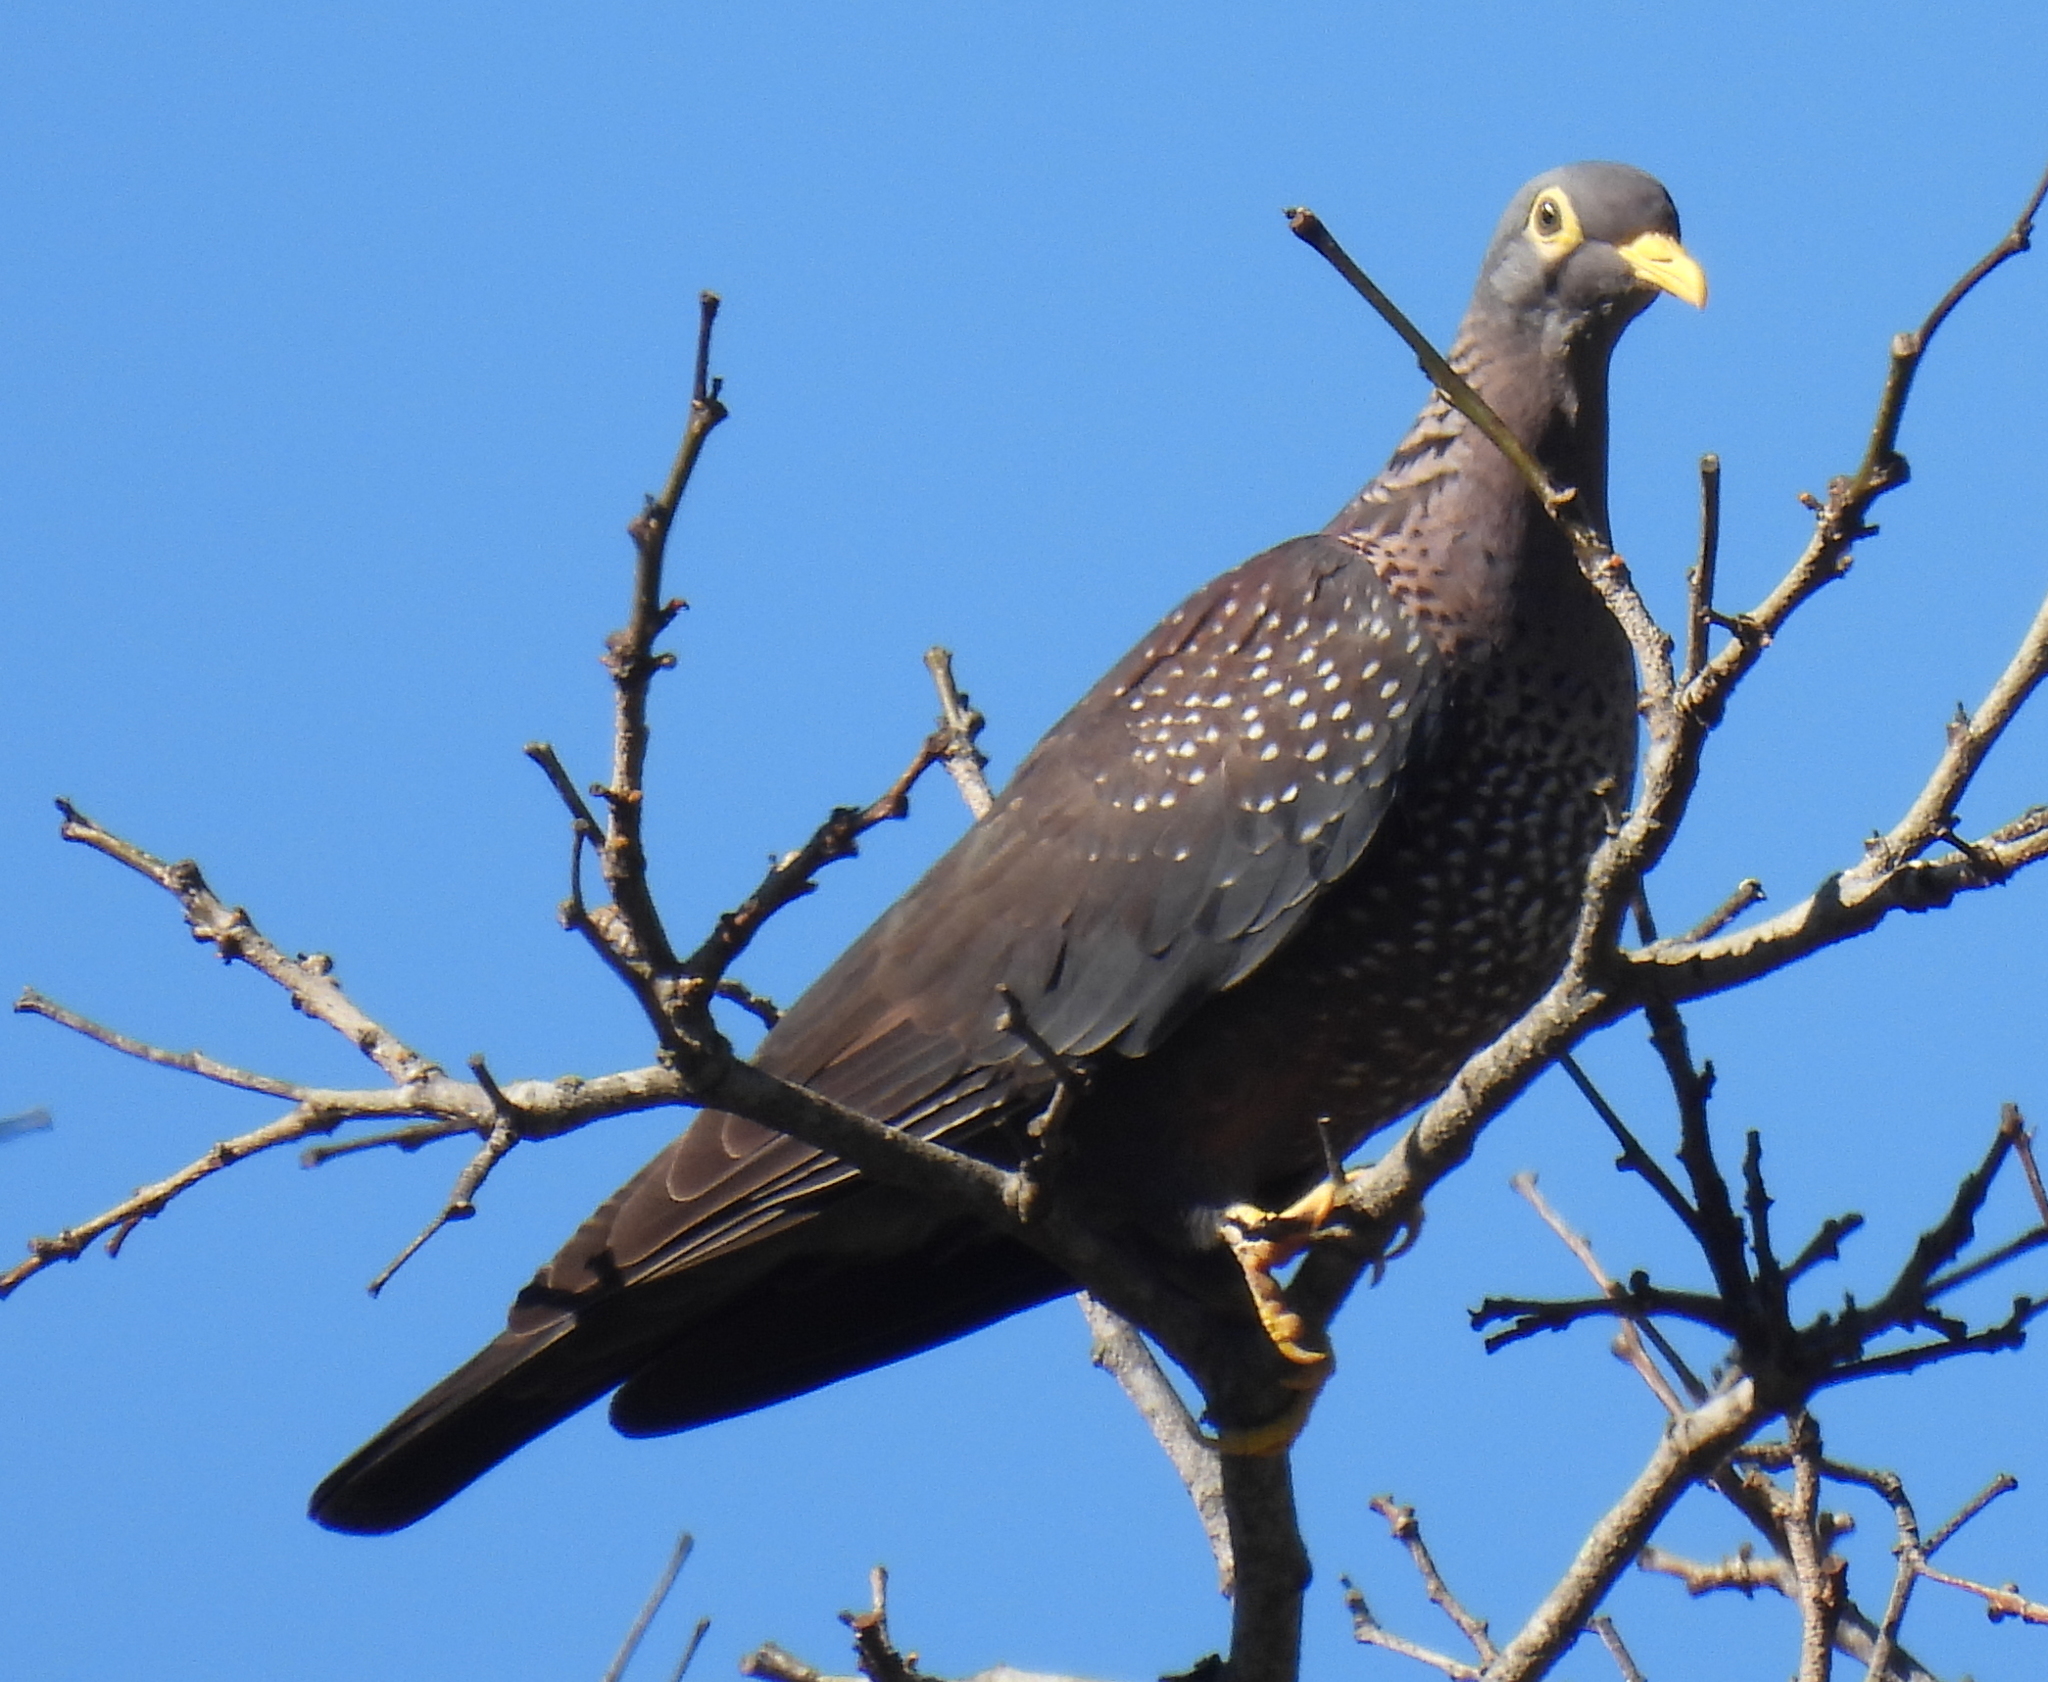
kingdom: Animalia
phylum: Chordata
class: Aves
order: Columbiformes
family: Columbidae
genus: Columba
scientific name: Columba arquatrix
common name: African olive pigeon
